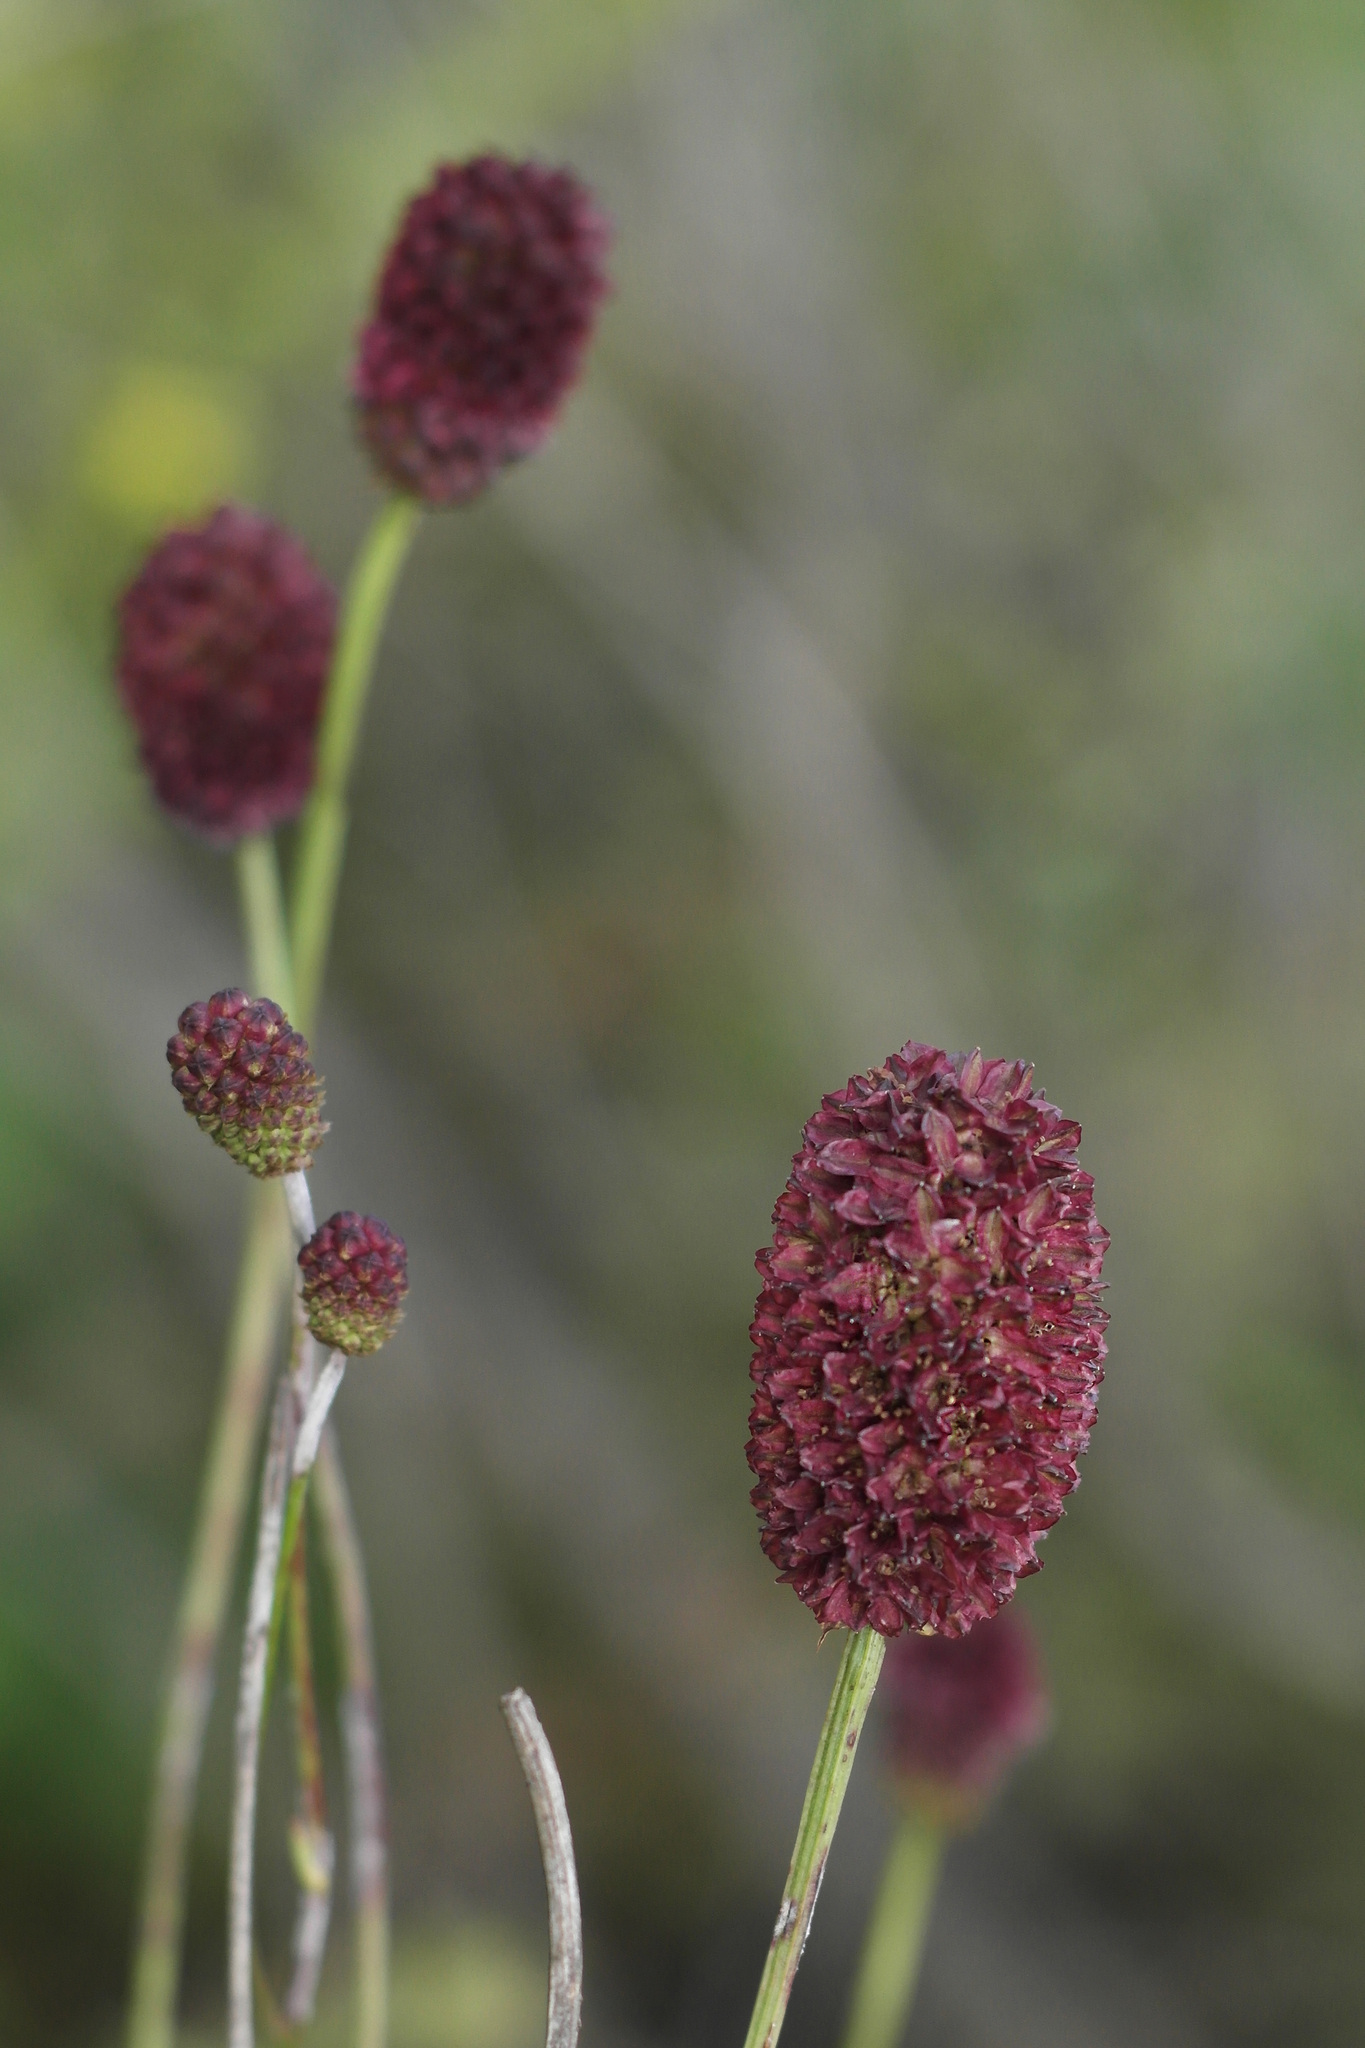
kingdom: Plantae
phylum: Tracheophyta
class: Magnoliopsida
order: Rosales
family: Rosaceae
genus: Sanguisorba
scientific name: Sanguisorba officinalis
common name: Great burnet
